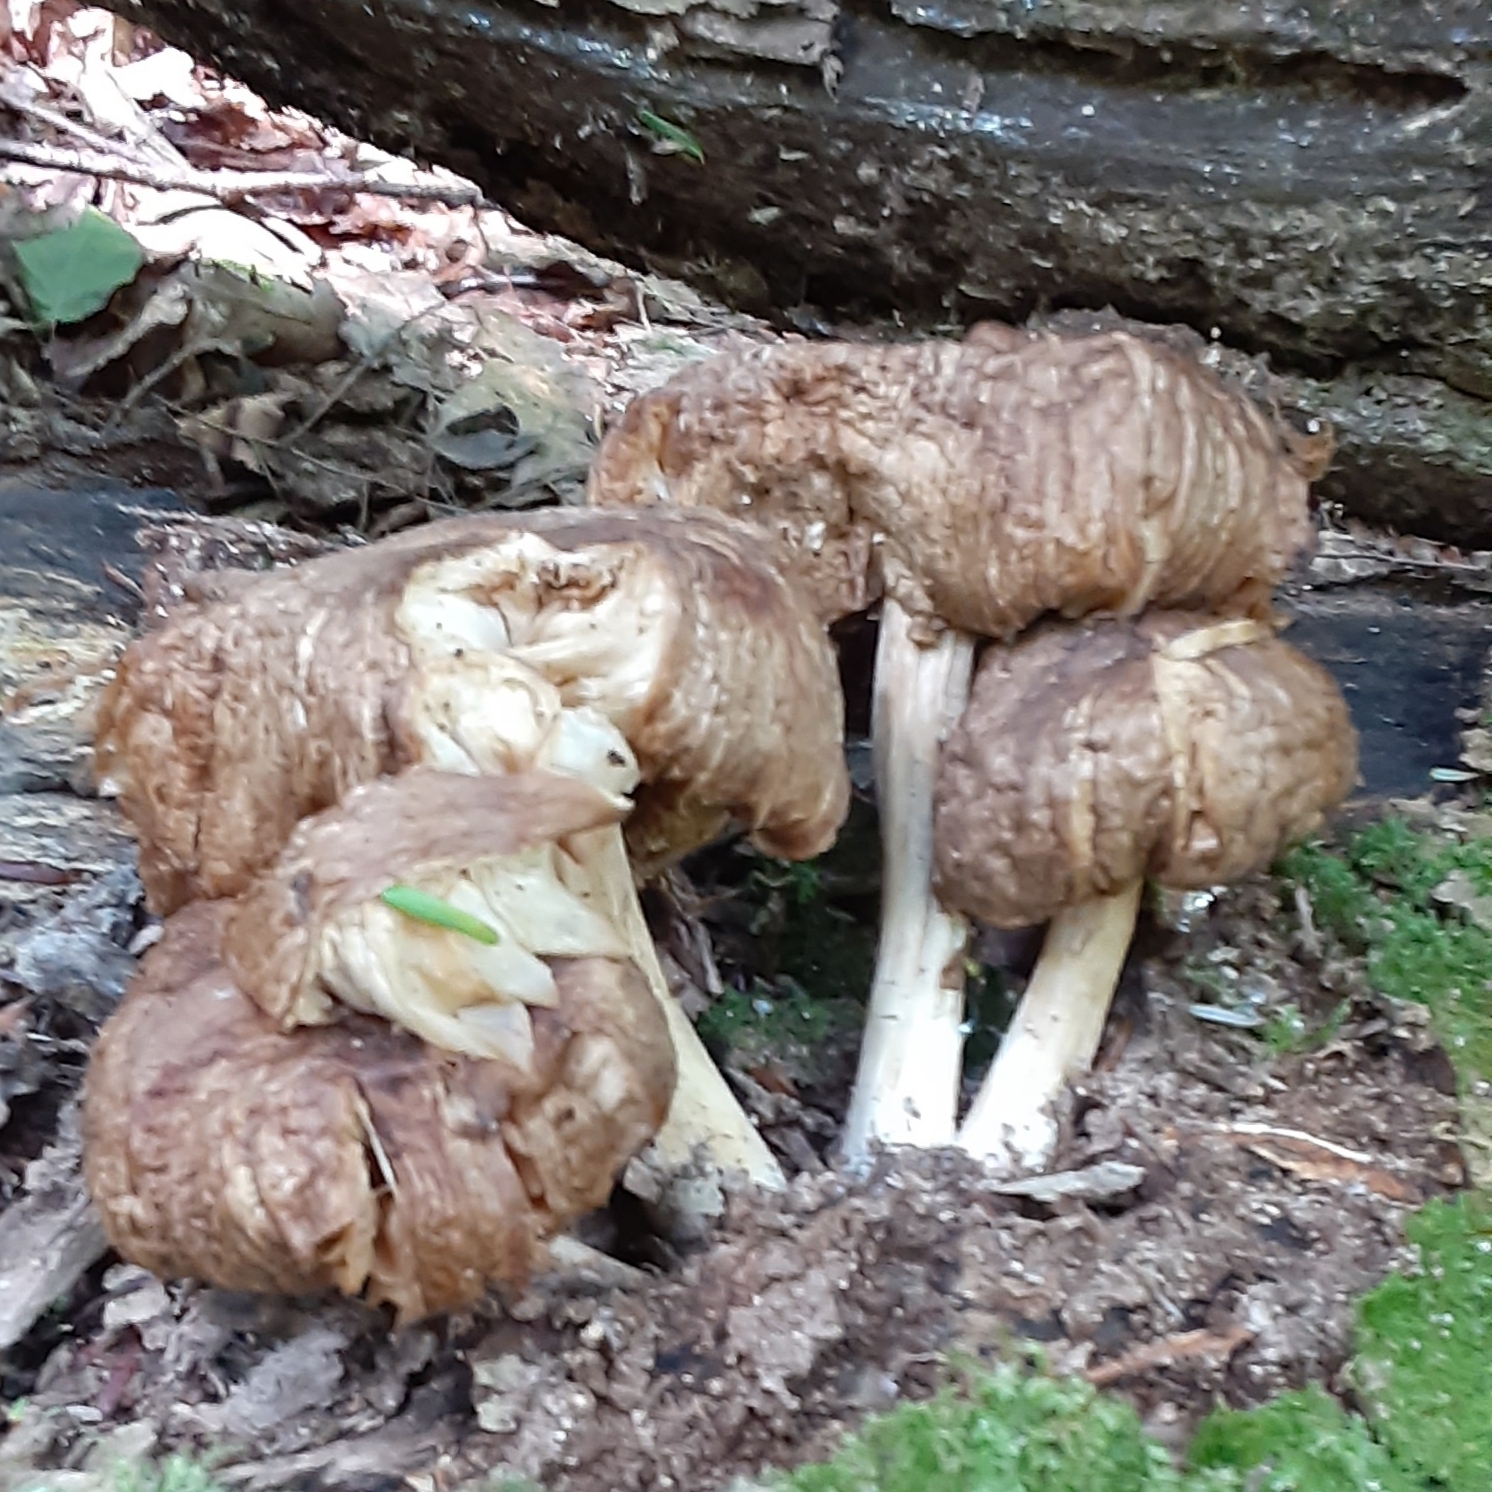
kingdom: Fungi
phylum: Basidiomycota
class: Agaricomycetes
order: Agaricales
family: Tricholomataceae
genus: Megacollybia
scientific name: Megacollybia rodmanii
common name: Eastern american platterful mushroom
